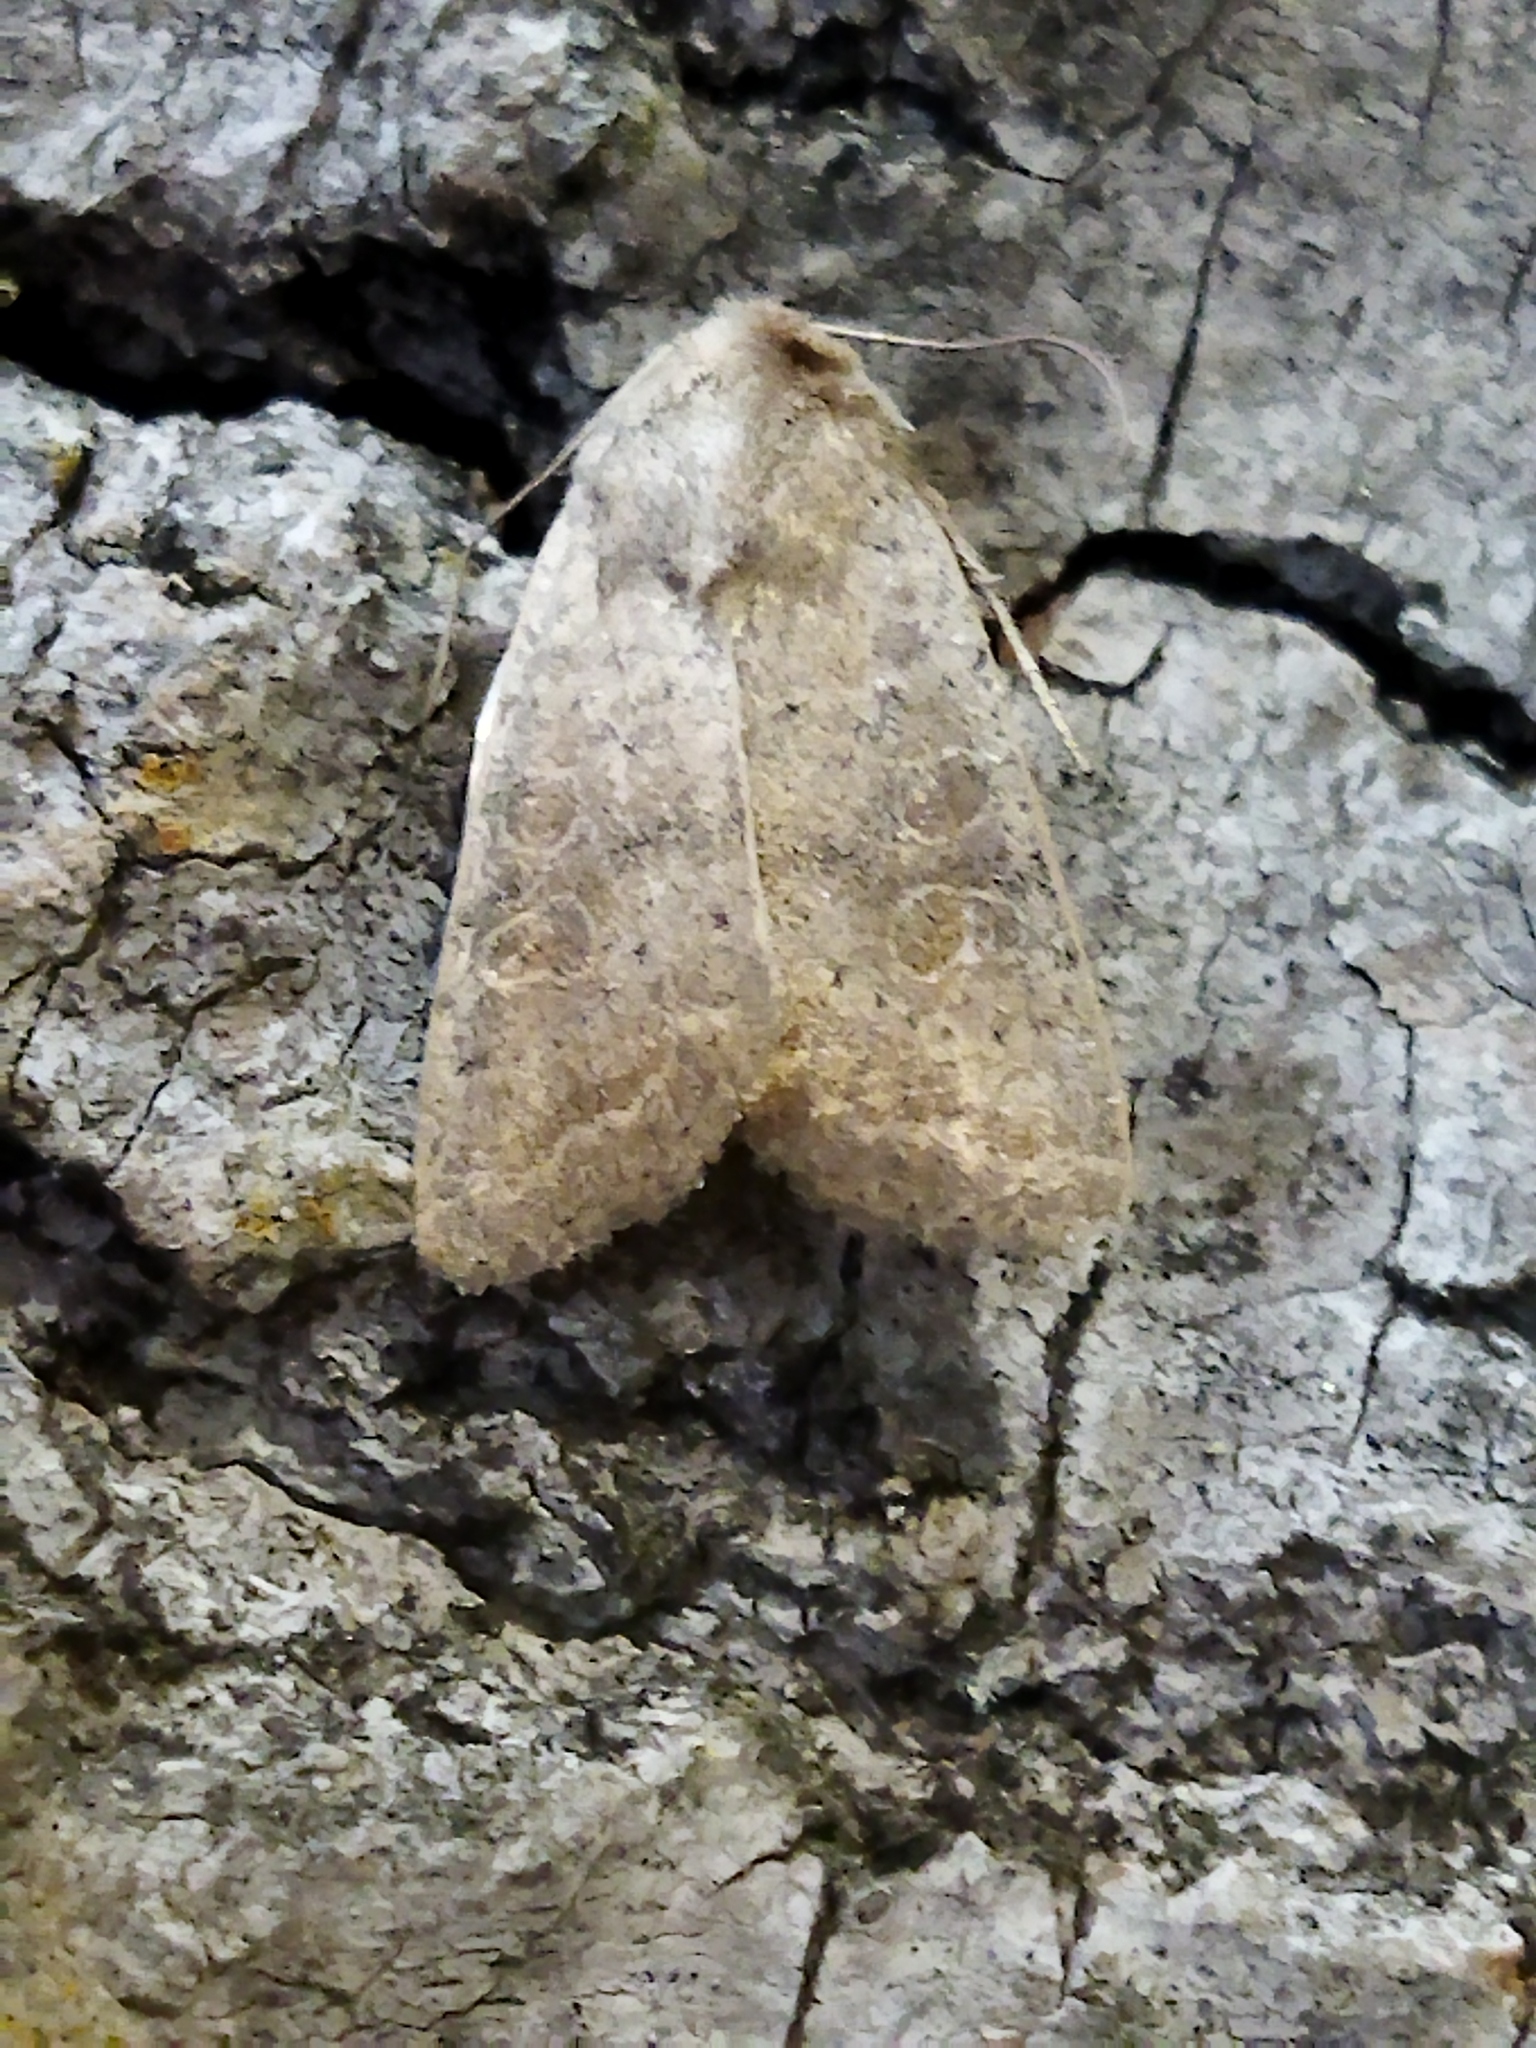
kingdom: Animalia
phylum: Arthropoda
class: Insecta
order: Lepidoptera
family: Noctuidae
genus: Hoplodrina
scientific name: Hoplodrina ambigua
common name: Vine's rustic
